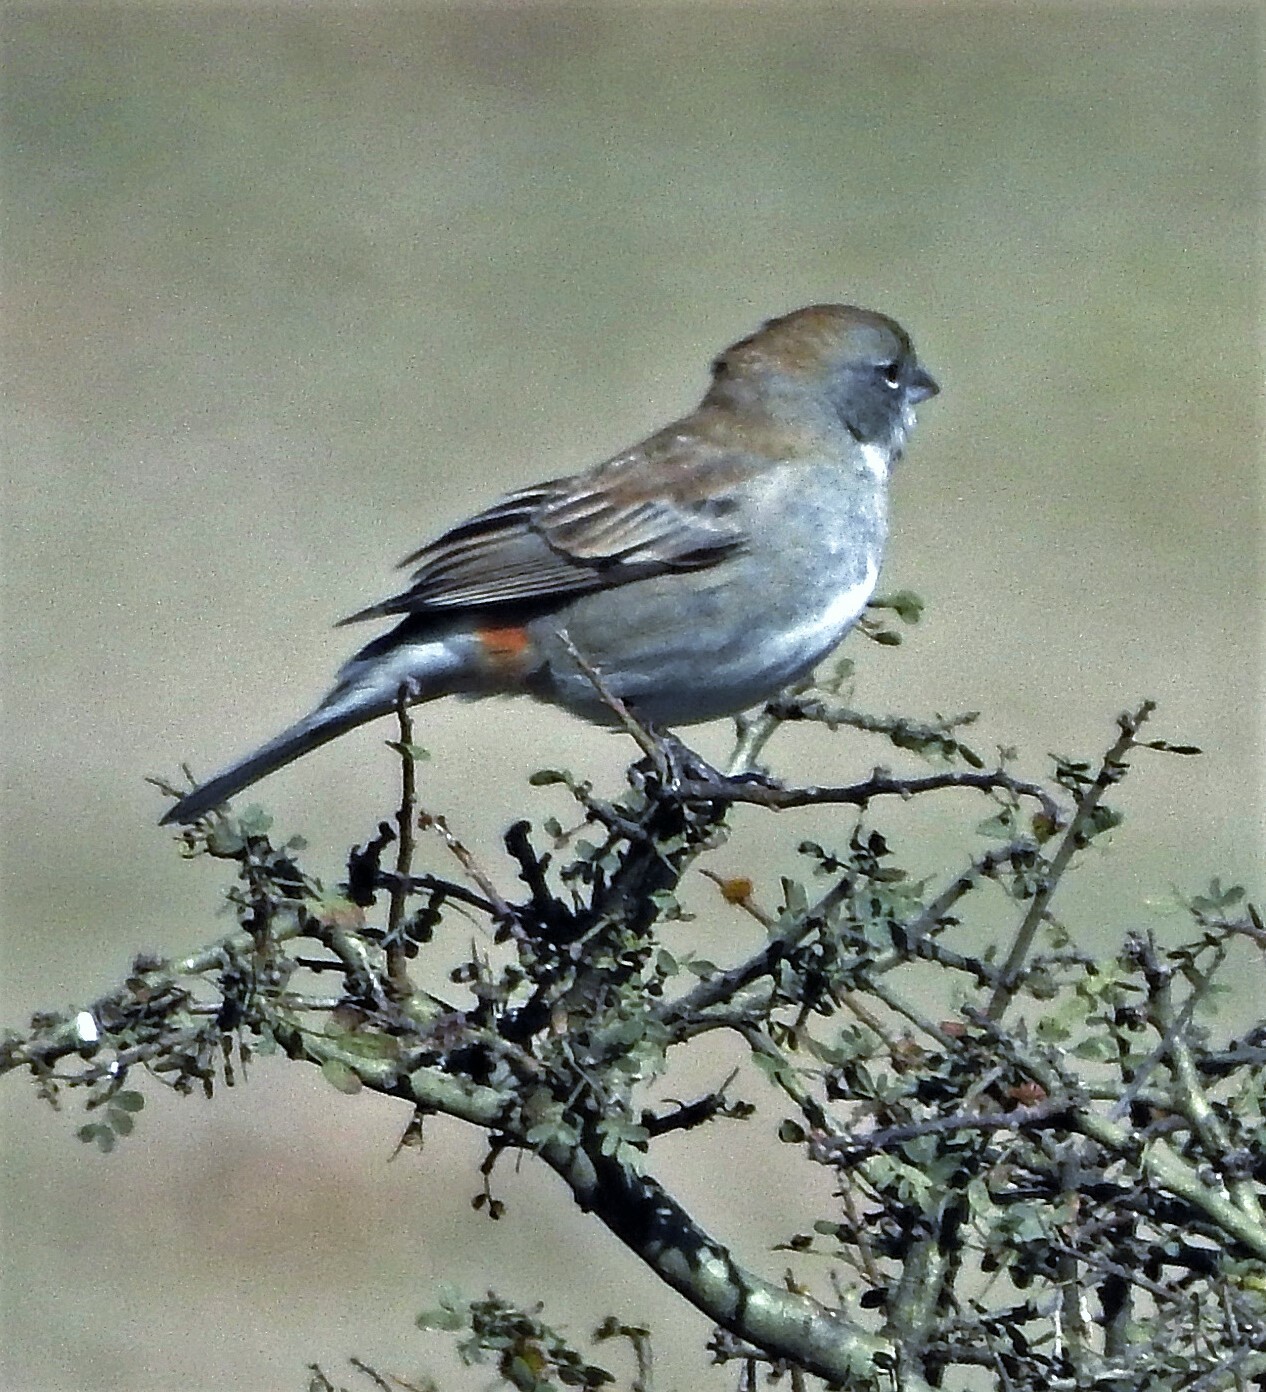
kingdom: Animalia
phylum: Chordata
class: Aves
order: Passeriformes
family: Thraupidae
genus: Diuca
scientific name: Diuca diuca
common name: Common diuca finch
